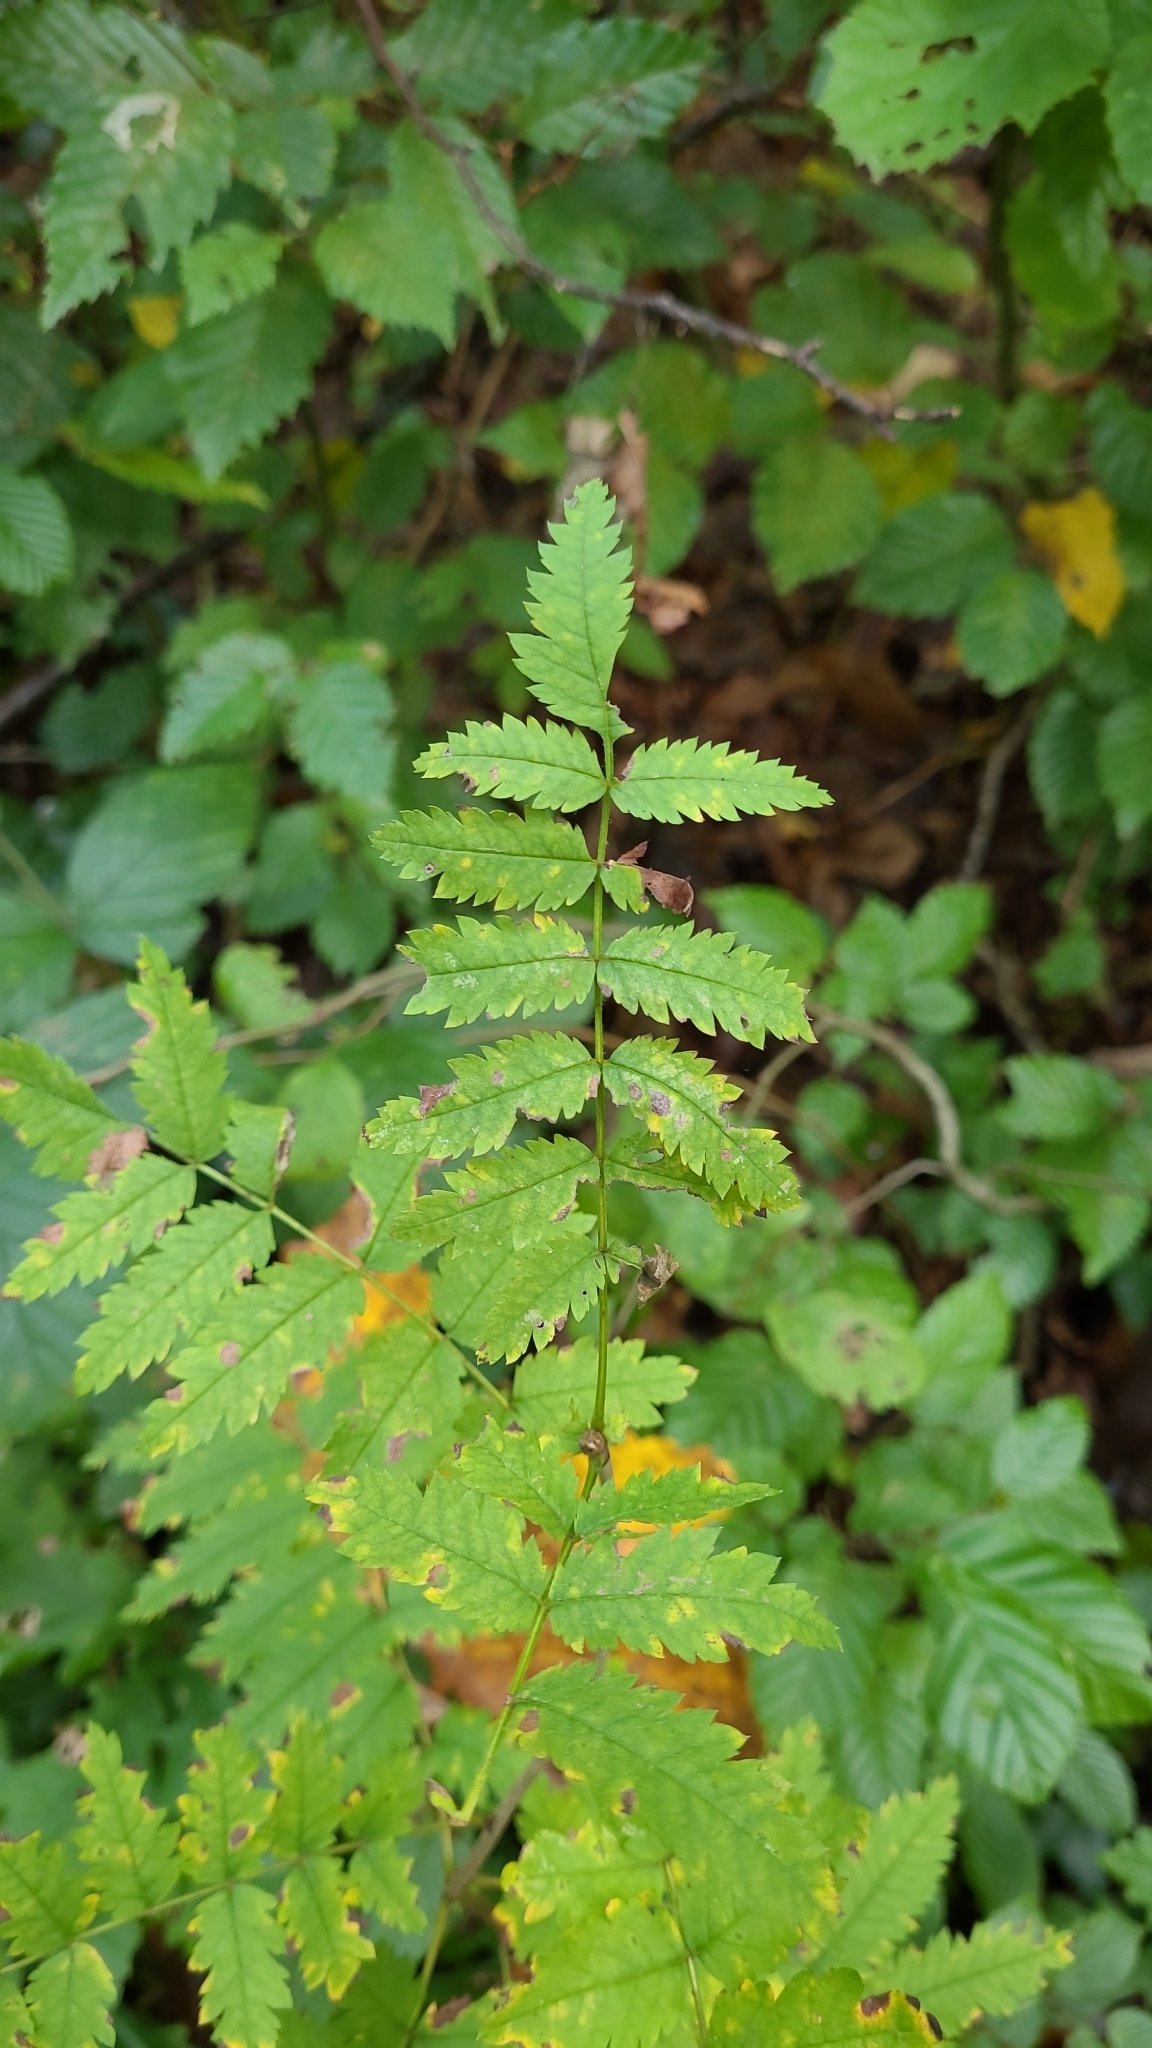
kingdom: Plantae
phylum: Tracheophyta
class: Magnoliopsida
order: Rosales
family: Rosaceae
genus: Sorbus
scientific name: Sorbus aucuparia
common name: Rowan
